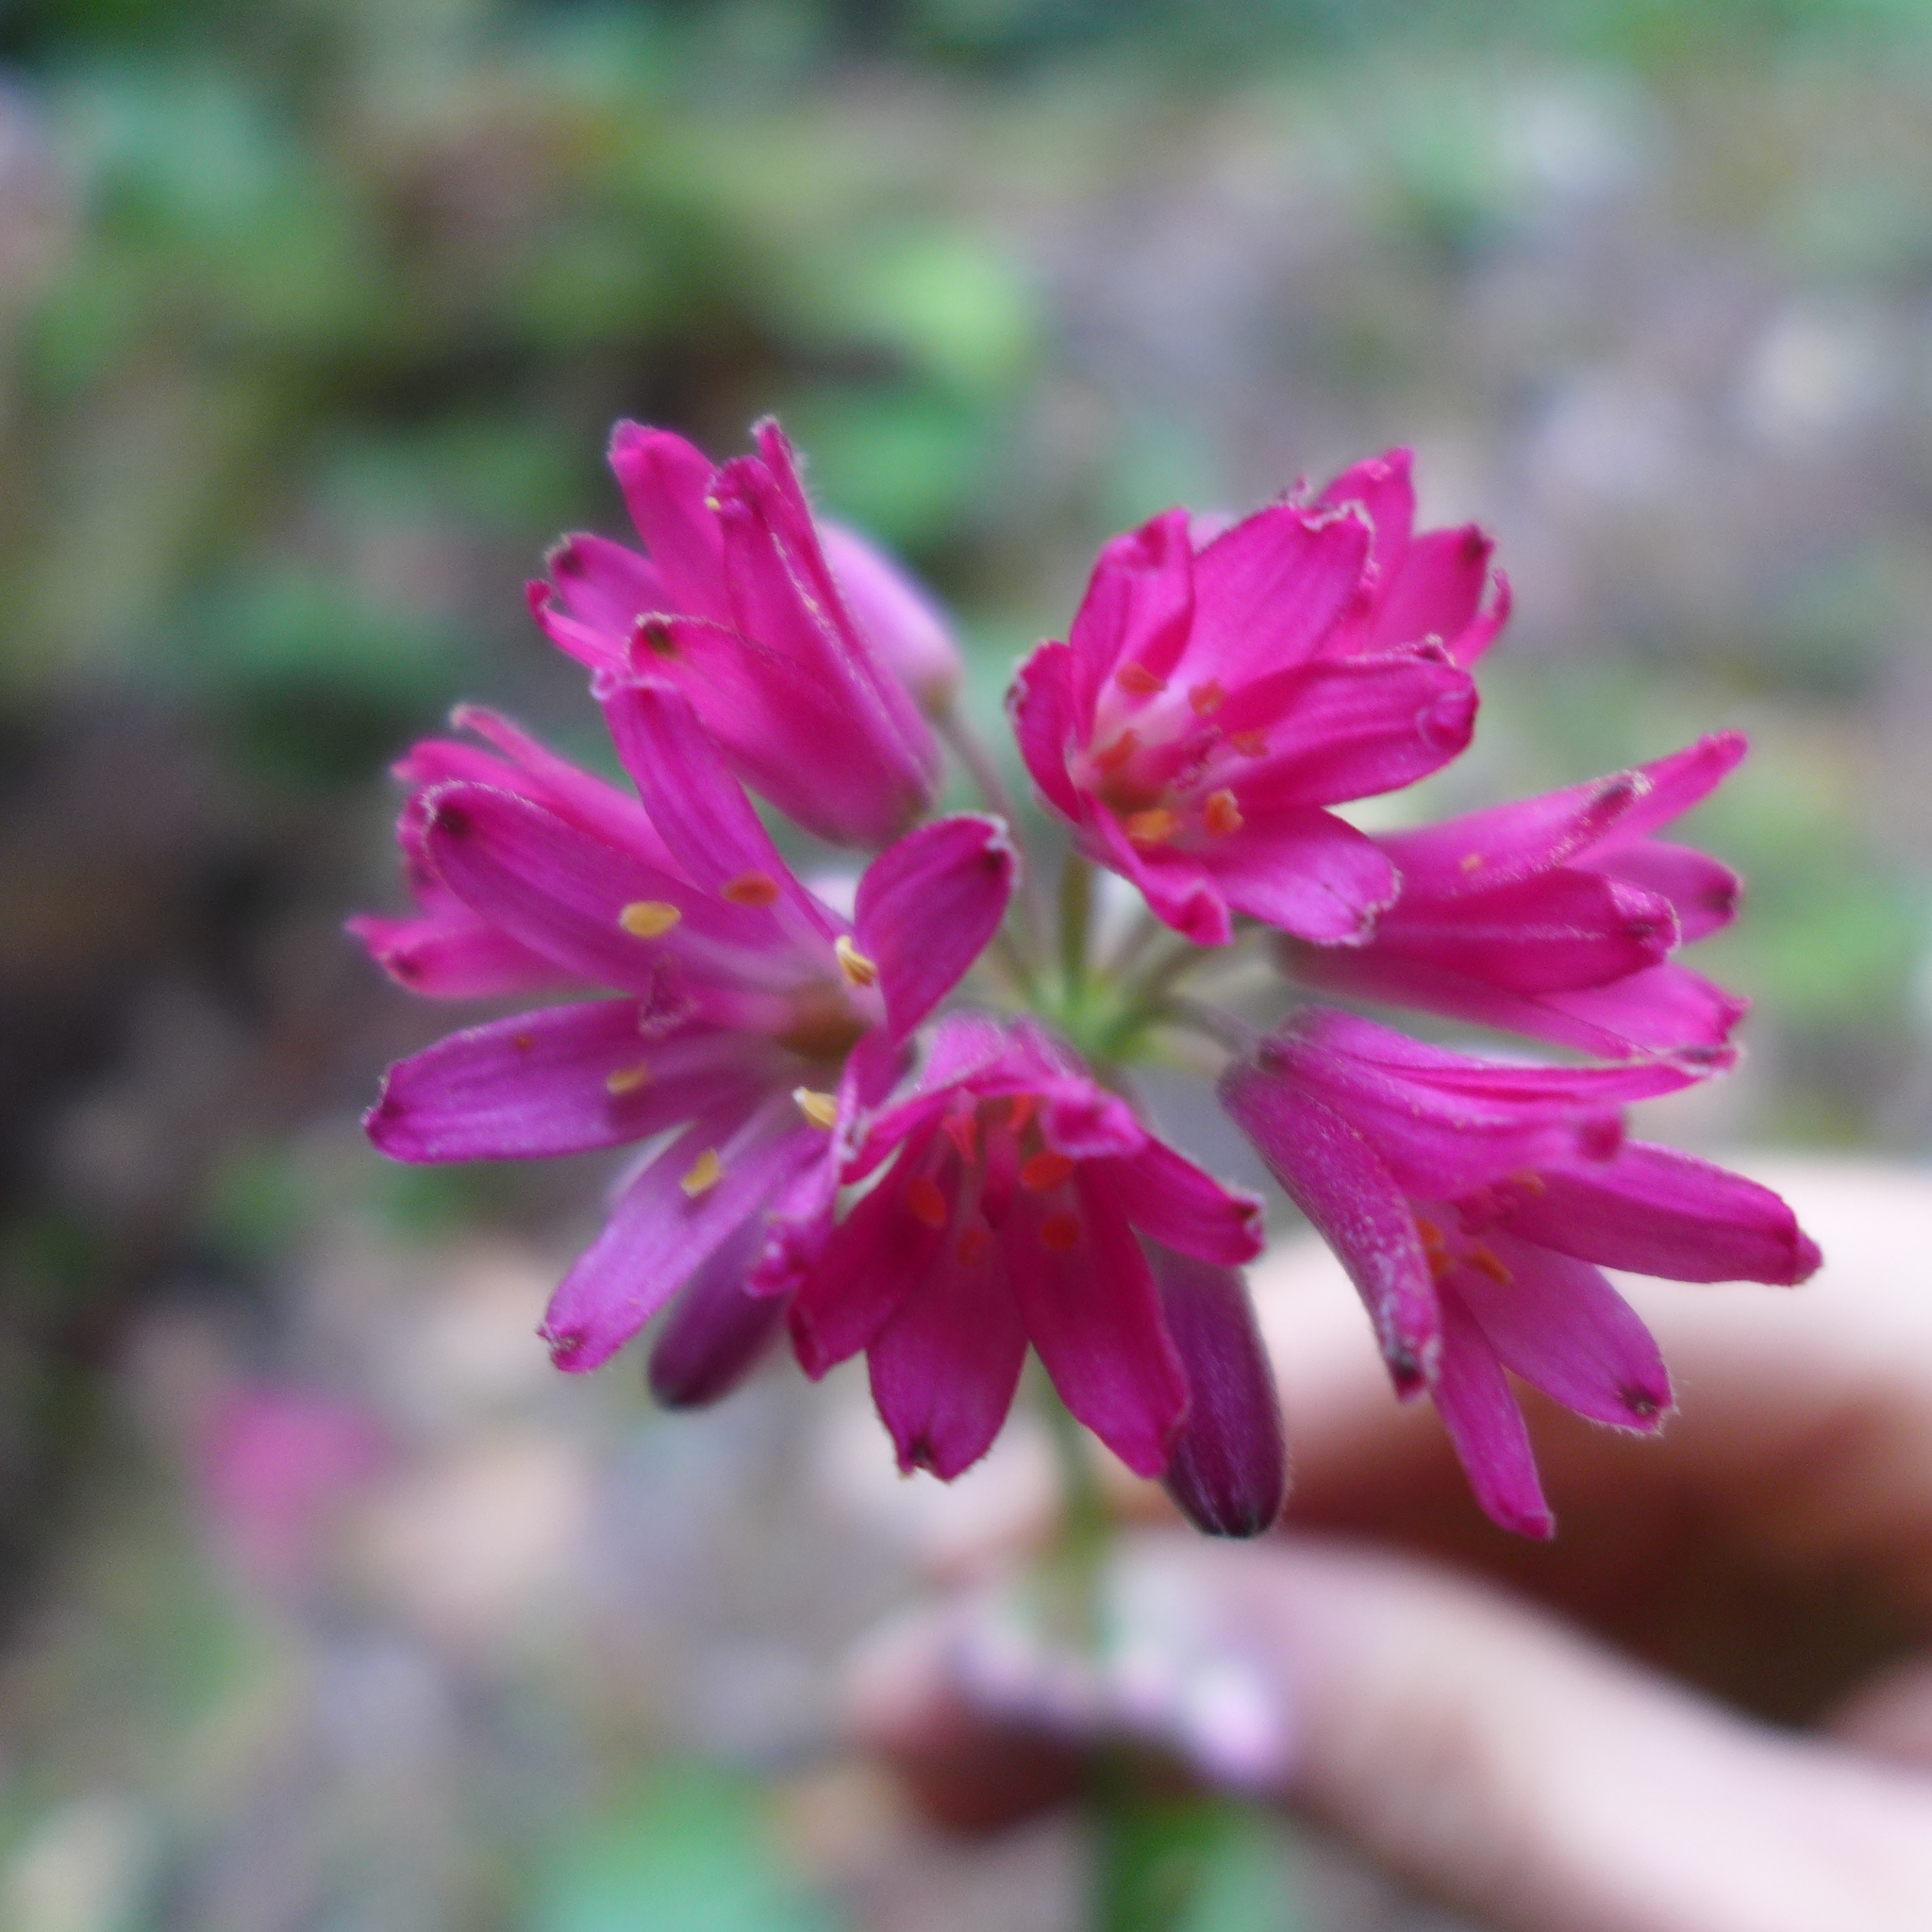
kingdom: Plantae
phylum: Tracheophyta
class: Liliopsida
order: Liliales
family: Liliaceae
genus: Clintonia
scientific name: Clintonia andrewsiana
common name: Red clintonia
